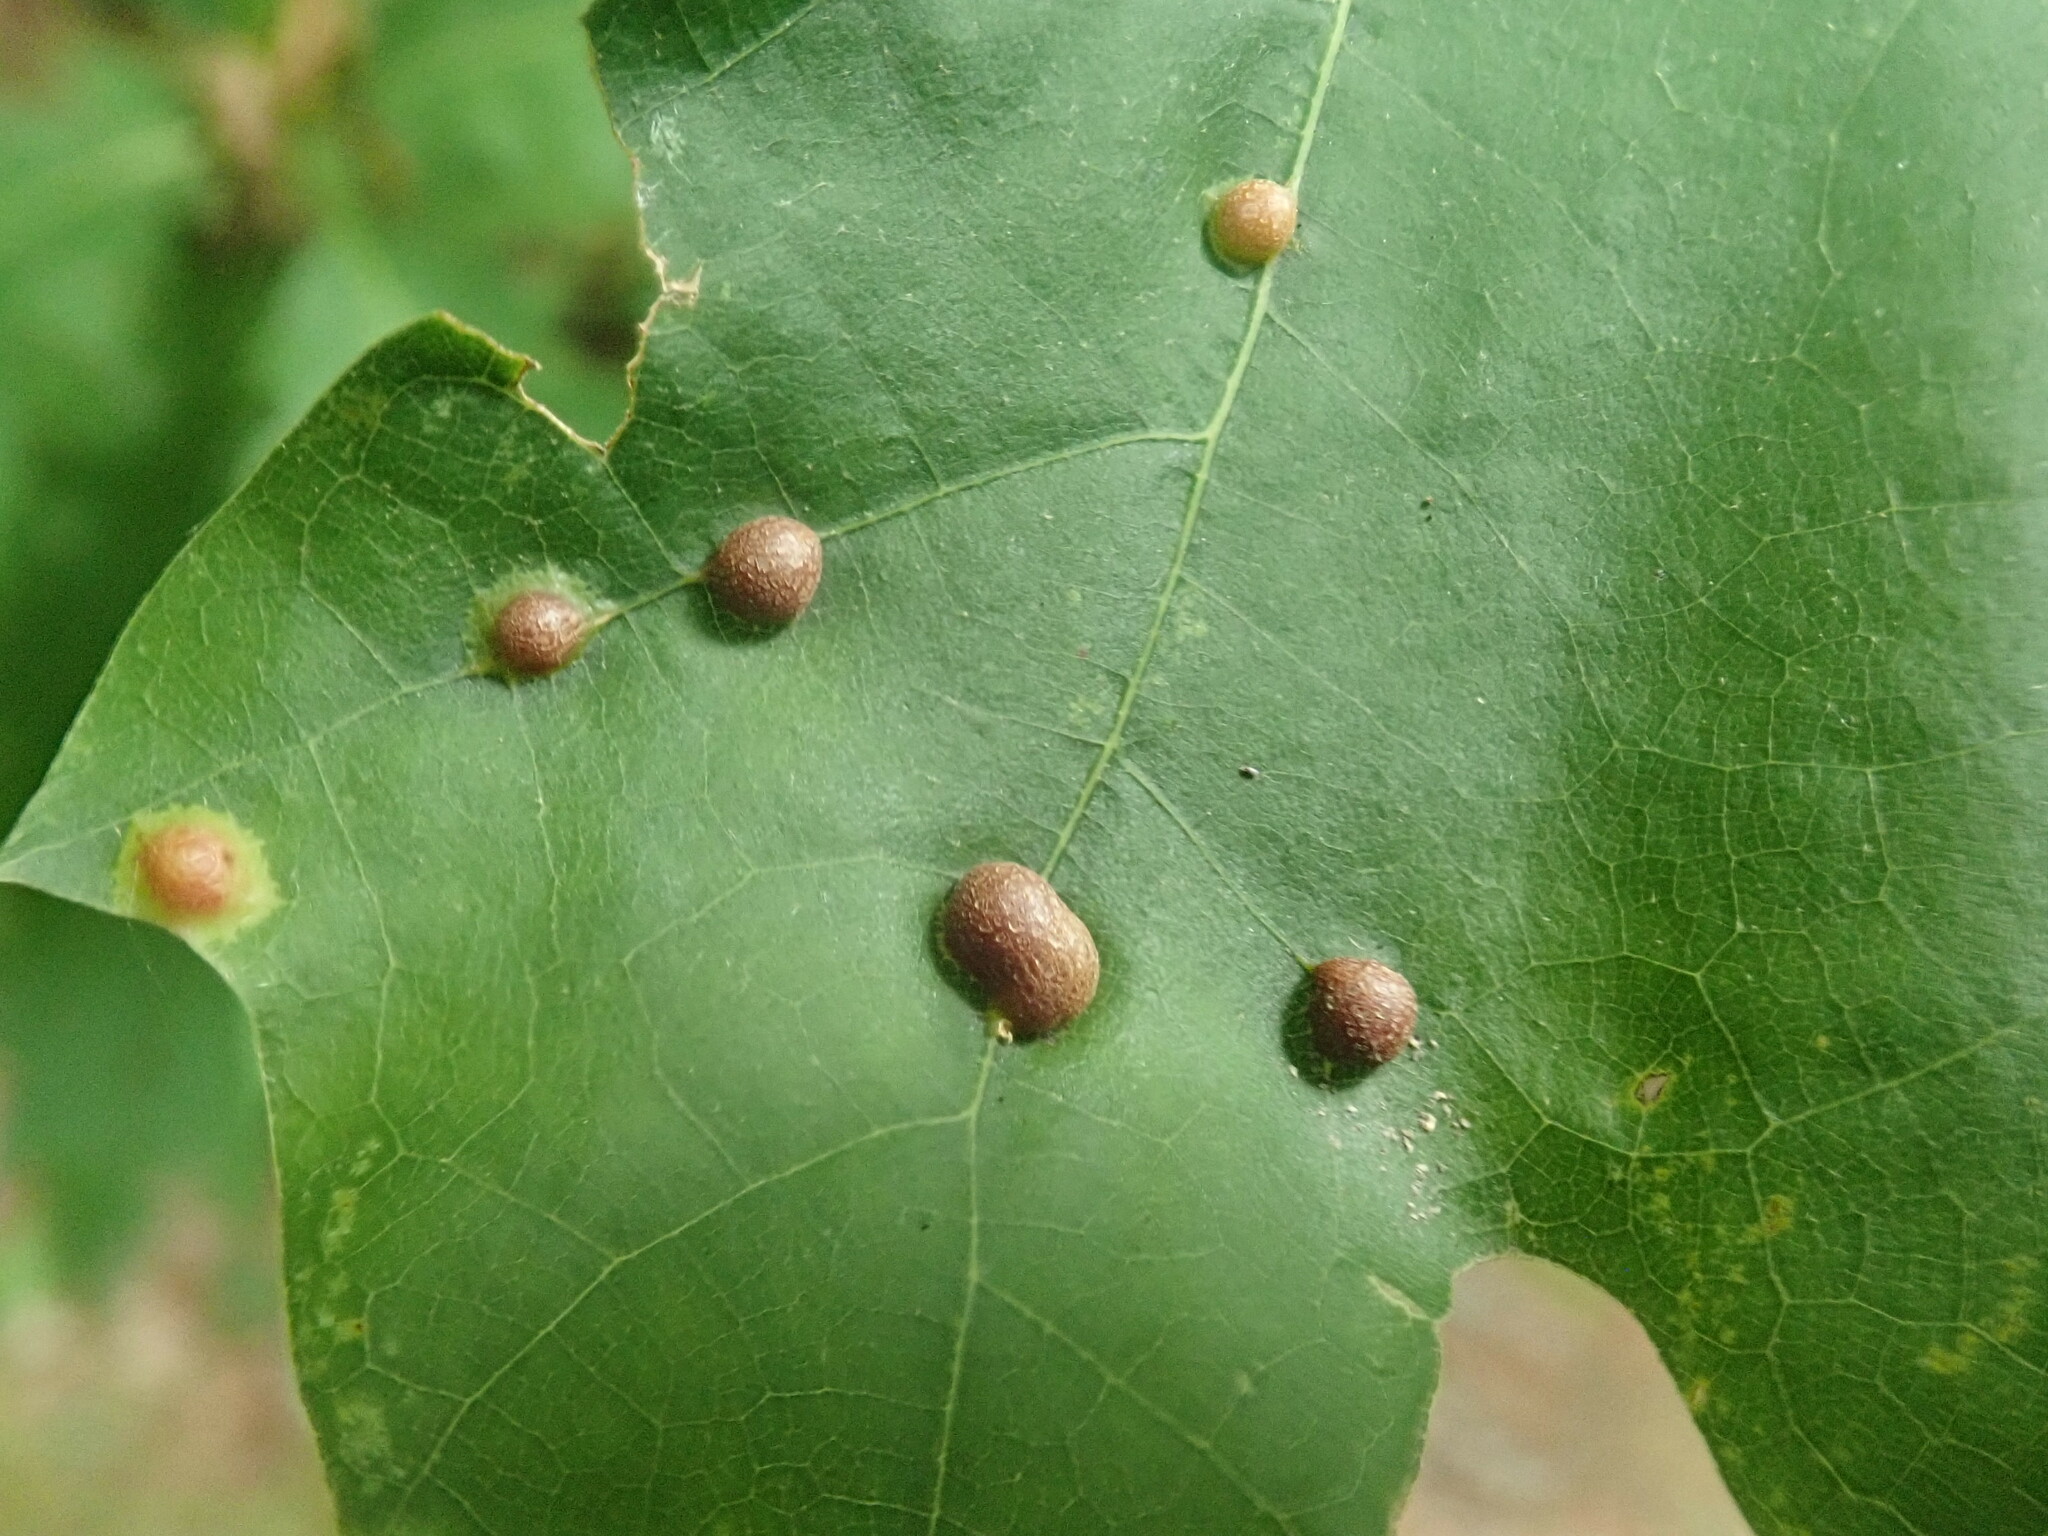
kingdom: Animalia
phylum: Arthropoda
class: Insecta
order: Diptera
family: Cecidomyiidae
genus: Polystepha
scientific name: Polystepha pilulae
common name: Oak leaf gall midge
